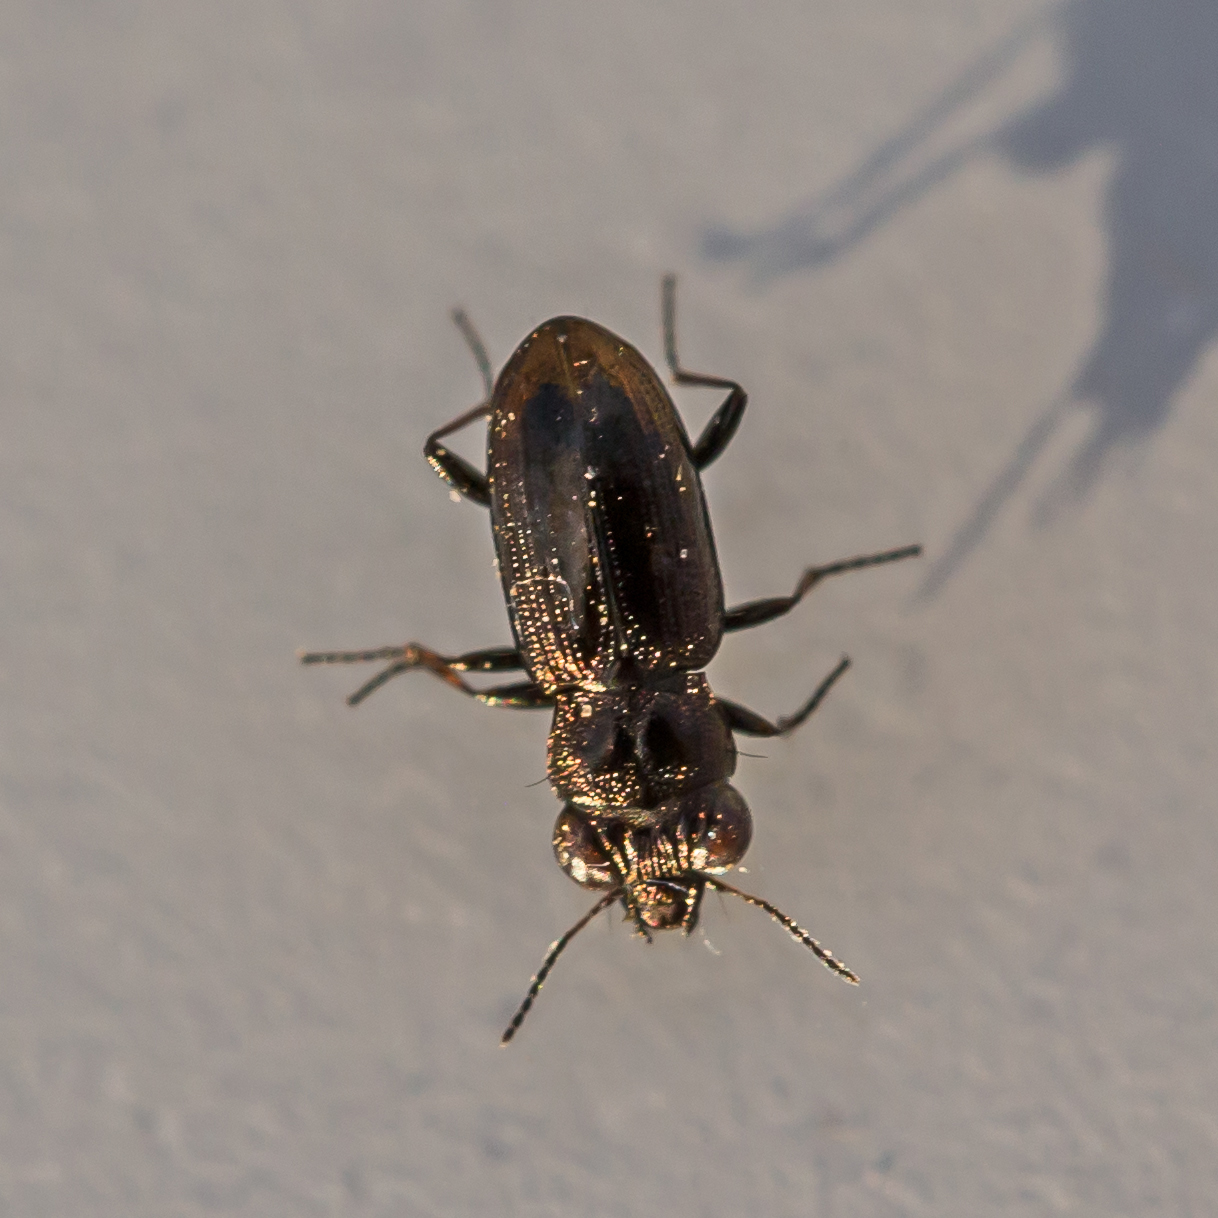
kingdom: Animalia
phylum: Arthropoda
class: Insecta
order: Coleoptera
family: Carabidae
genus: Notiophilus
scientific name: Notiophilus novemstriatus
